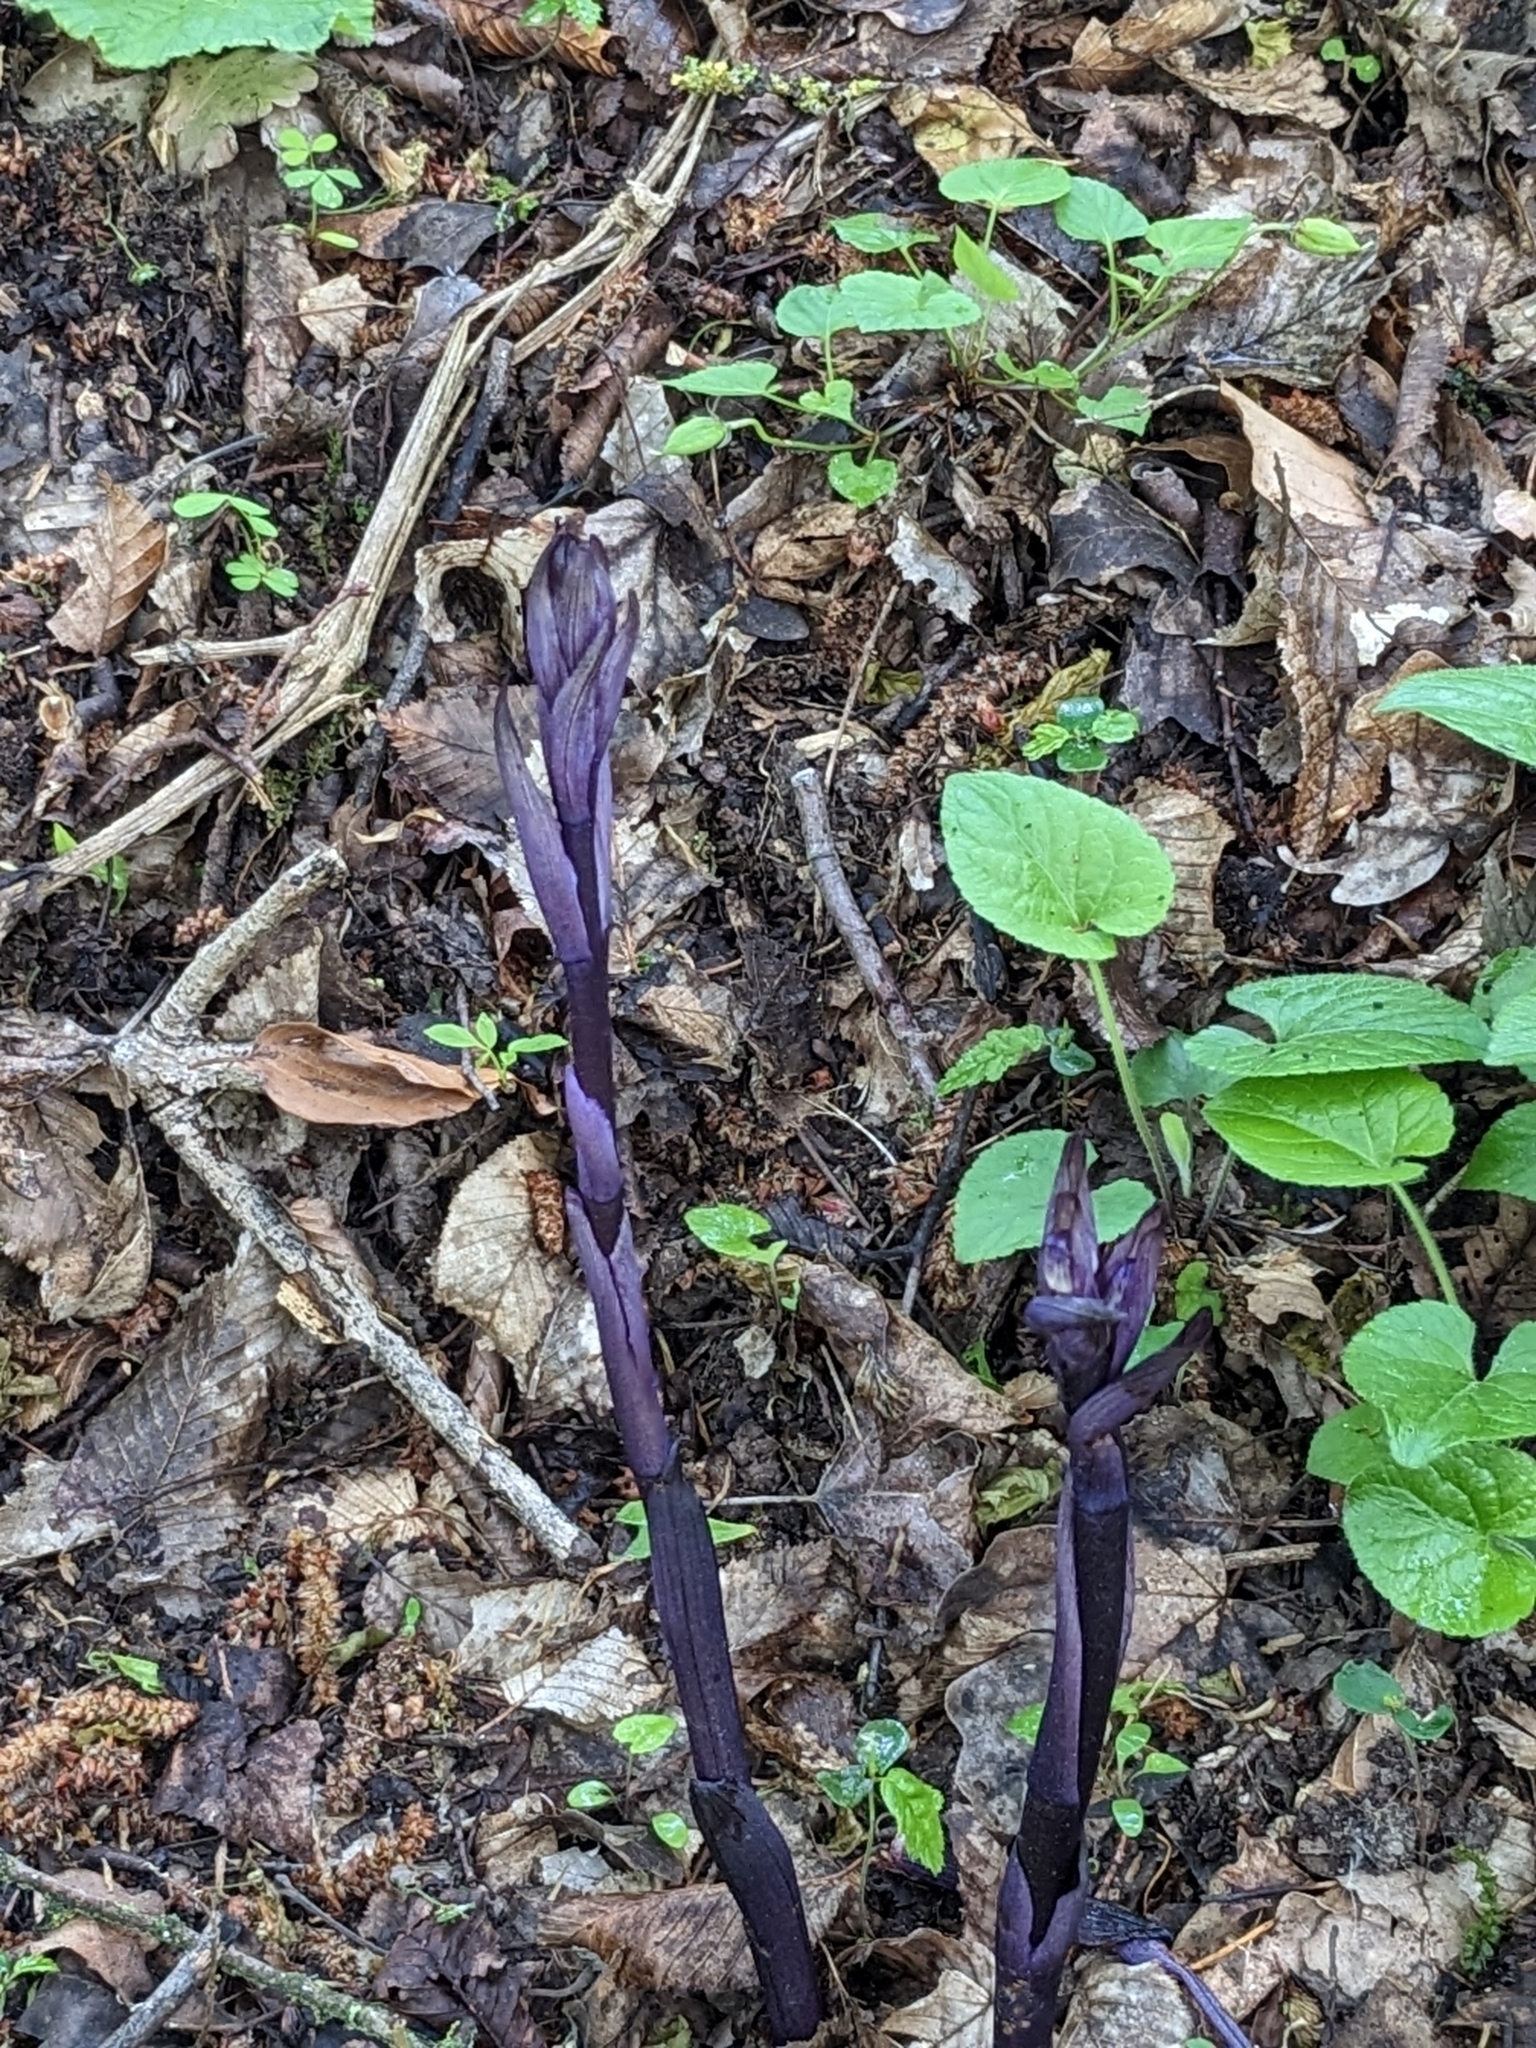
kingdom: Plantae
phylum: Tracheophyta
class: Liliopsida
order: Asparagales
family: Orchidaceae
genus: Limodorum
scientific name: Limodorum abortivum
